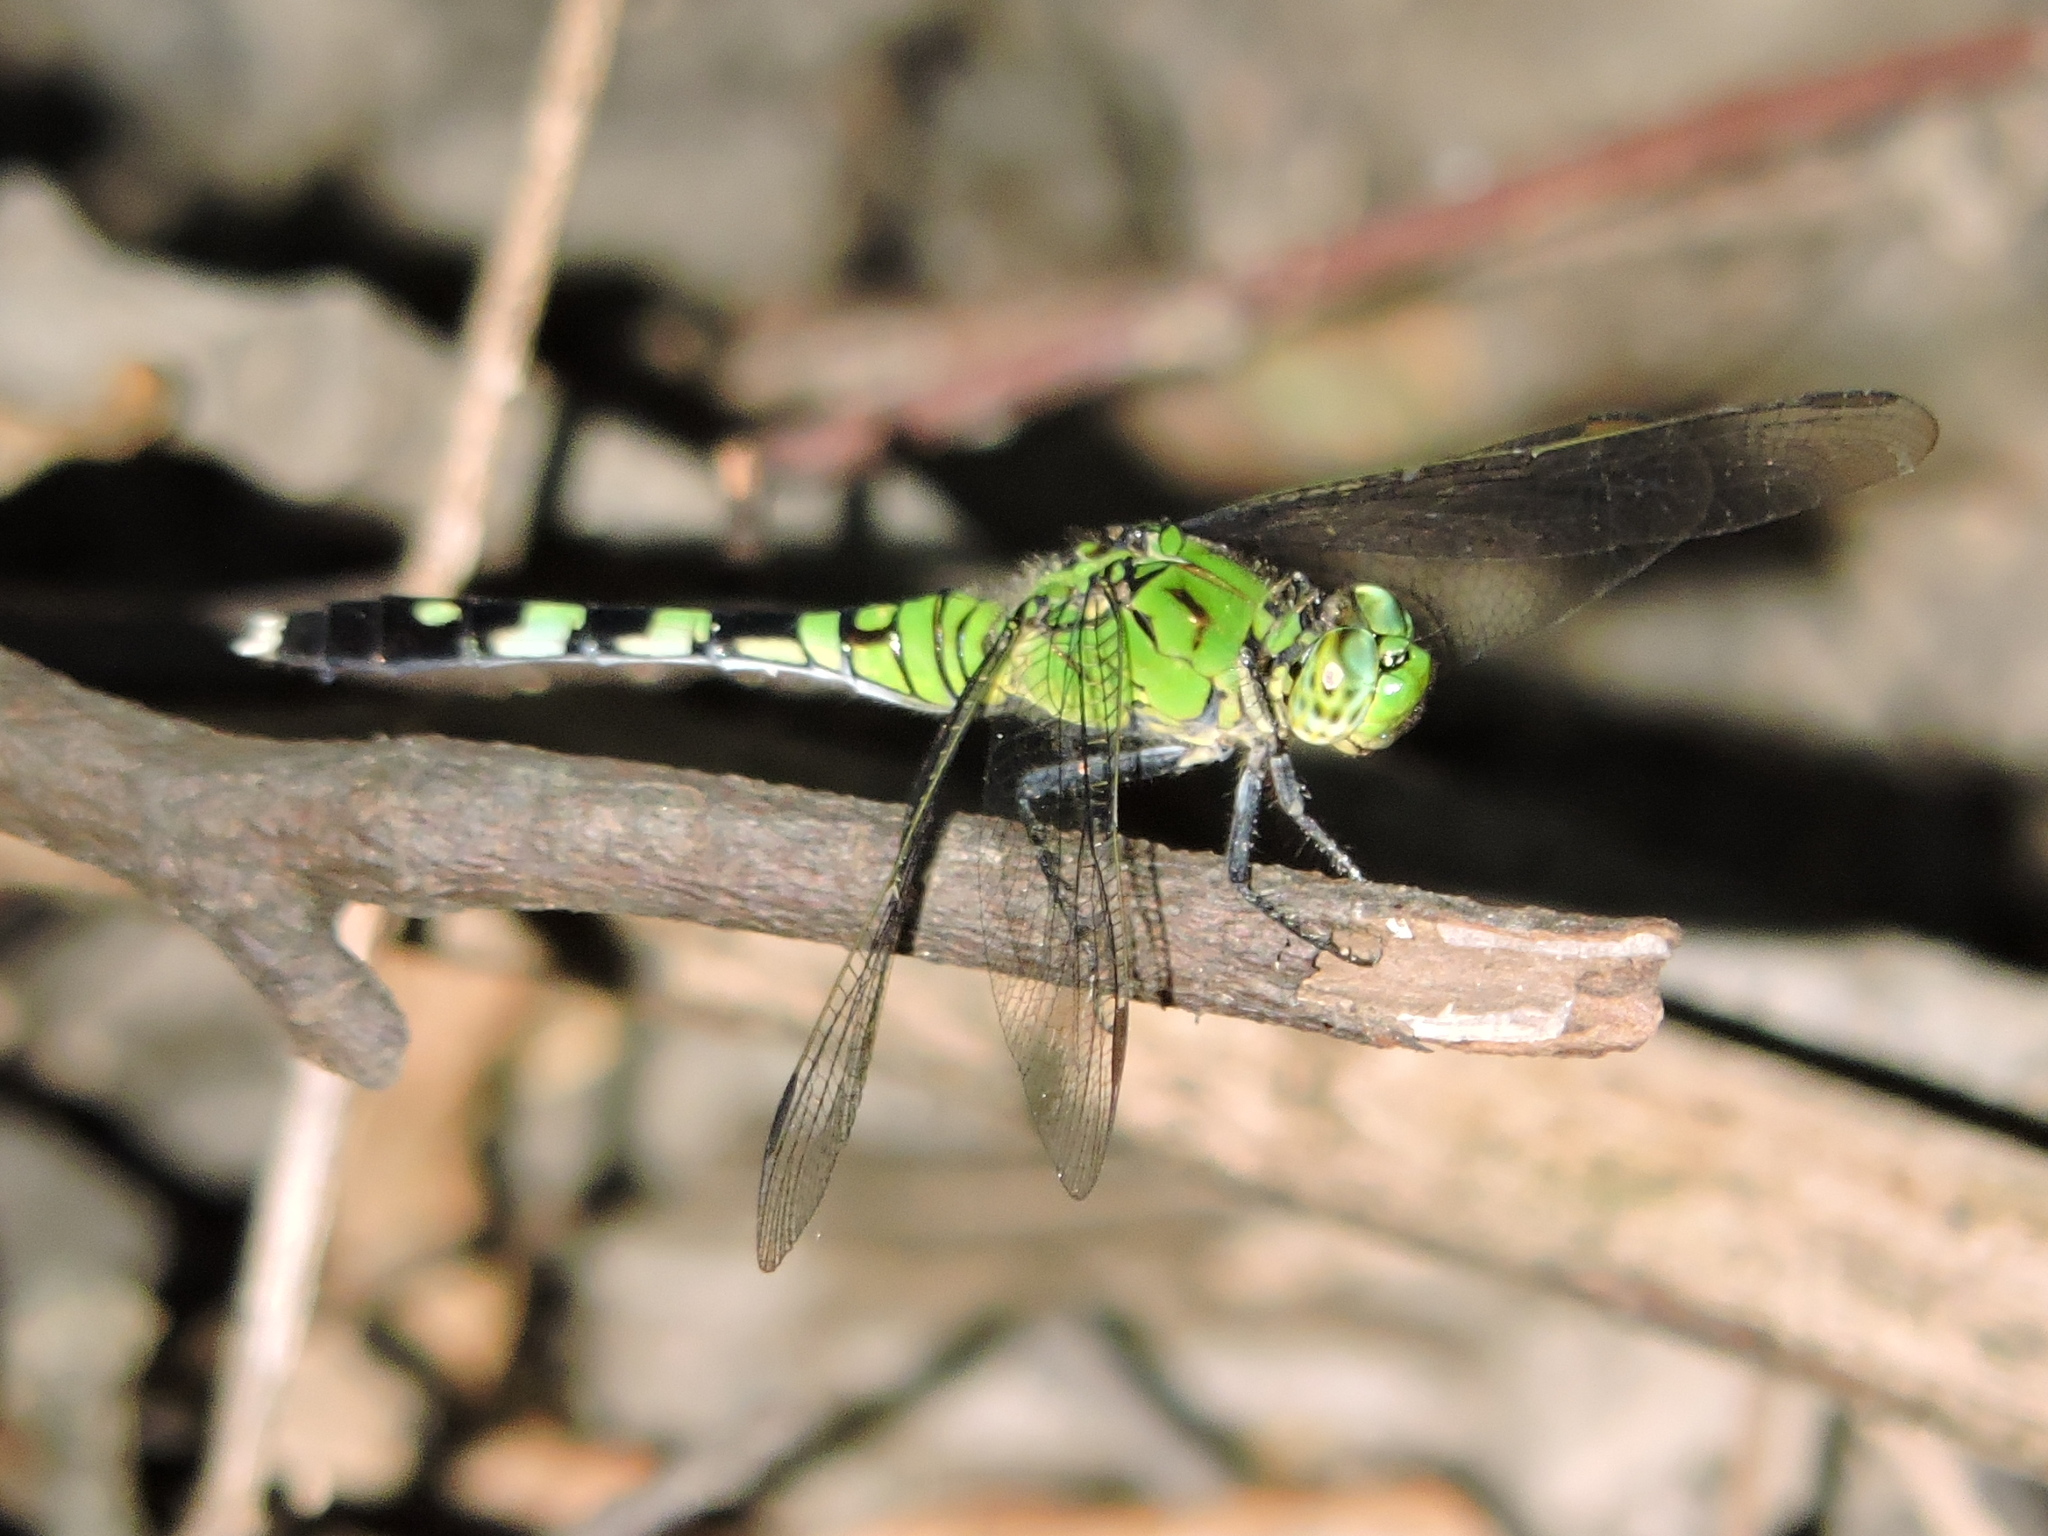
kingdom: Animalia
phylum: Arthropoda
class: Insecta
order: Odonata
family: Libellulidae
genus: Erythemis
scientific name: Erythemis simplicicollis
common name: Eastern pondhawk
